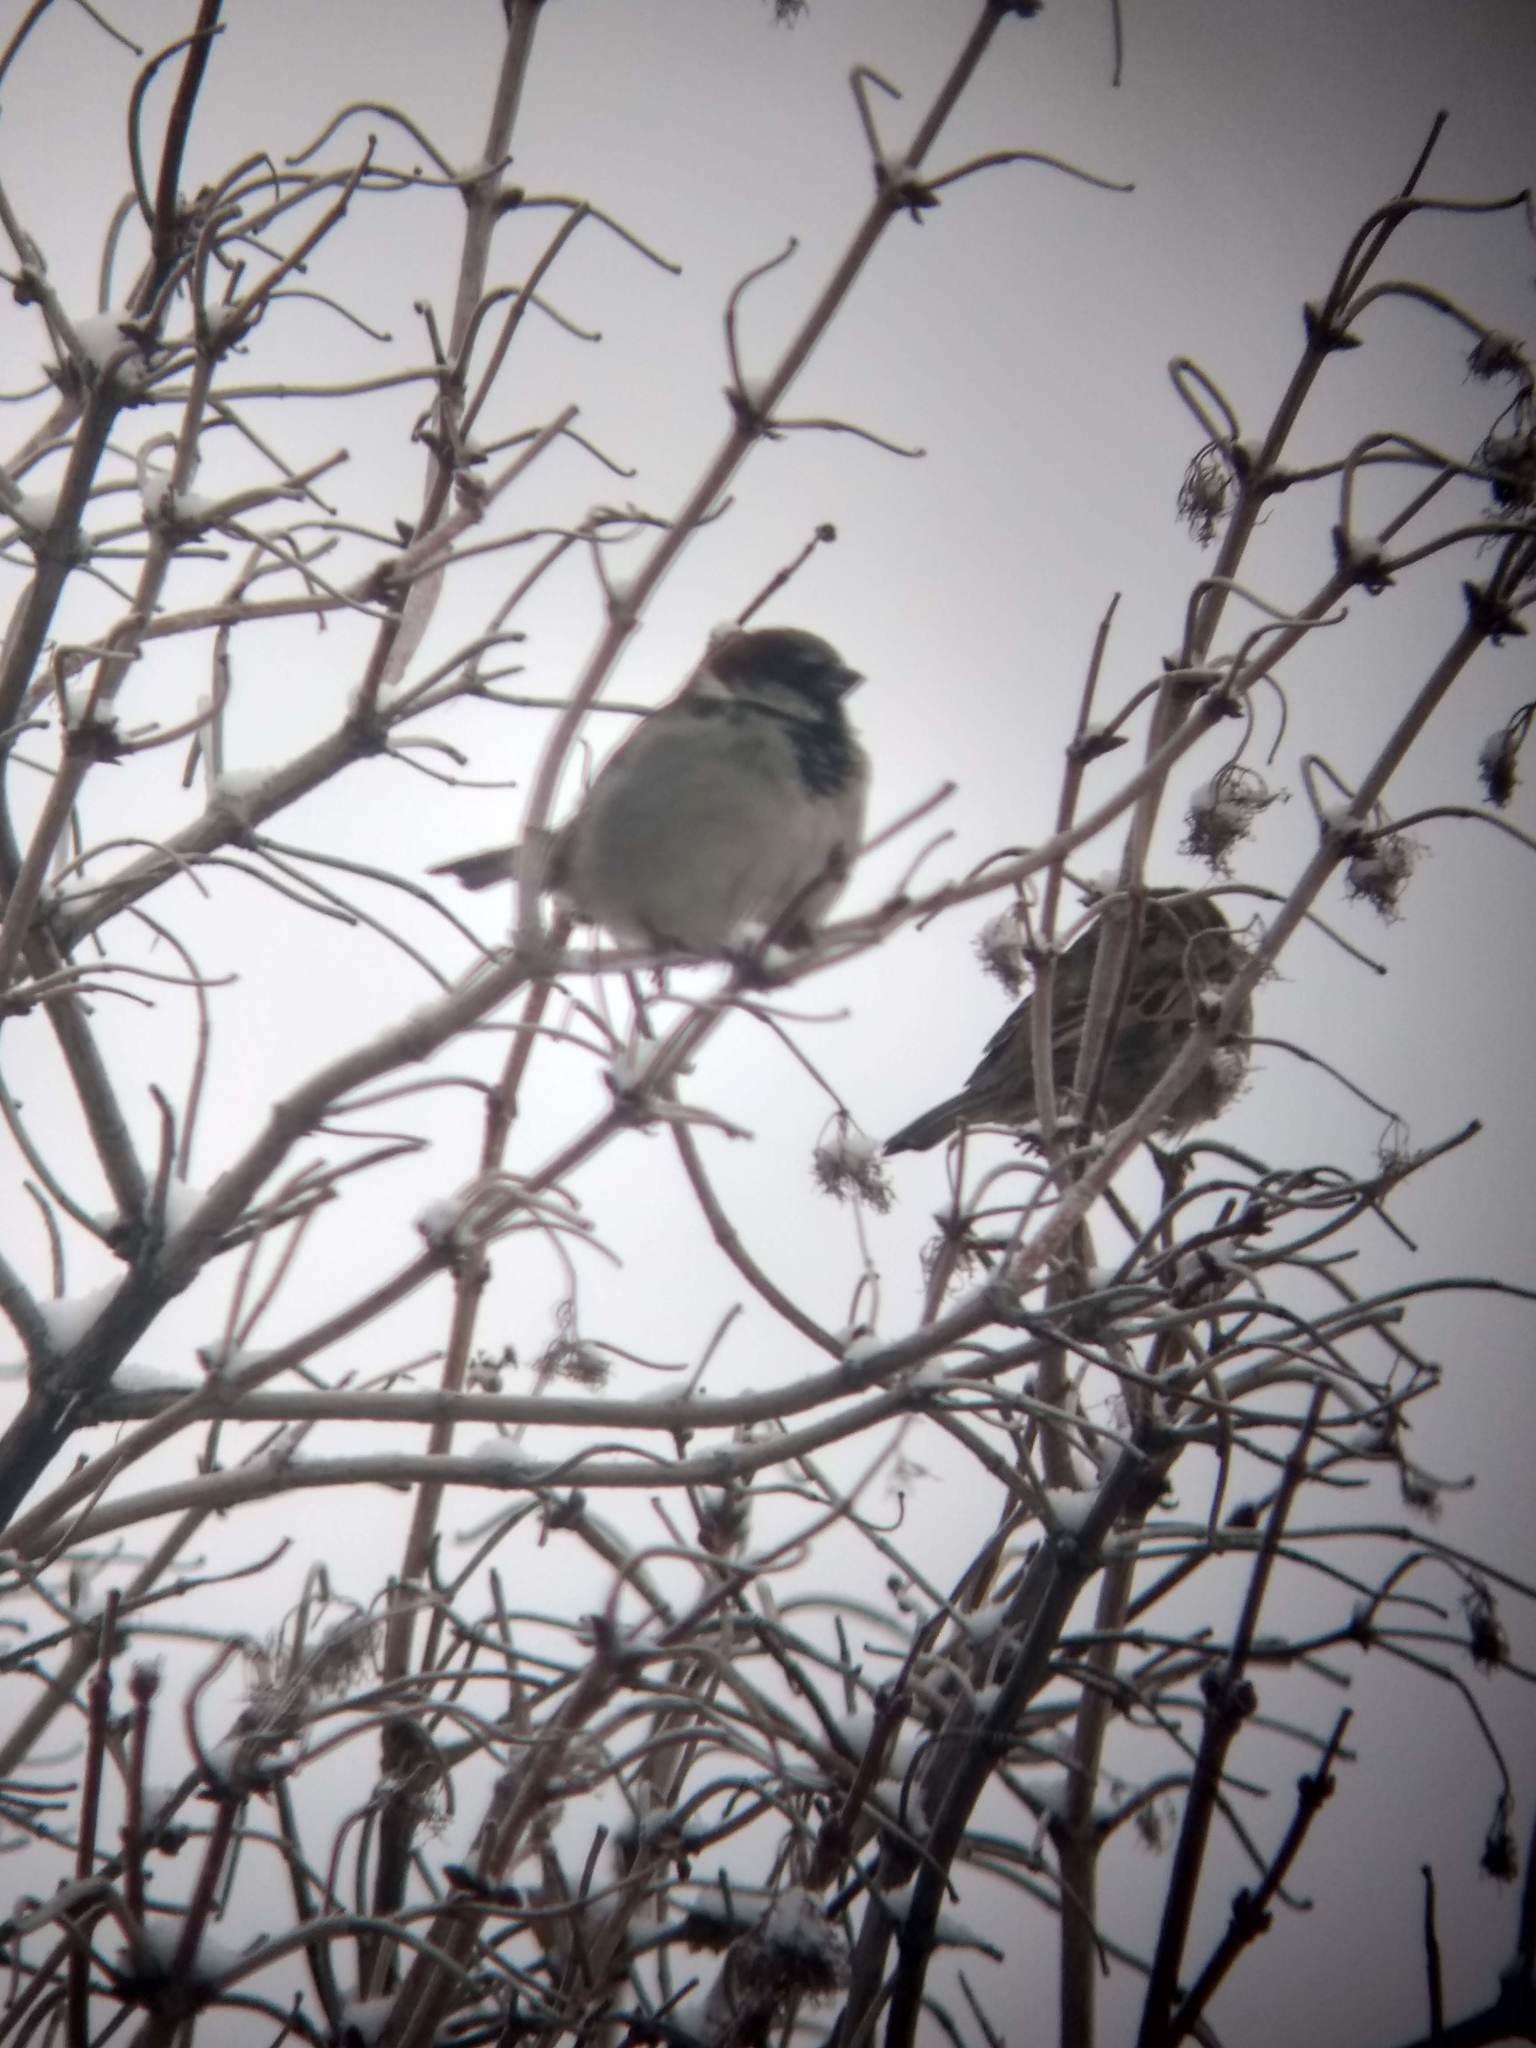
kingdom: Animalia
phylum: Chordata
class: Aves
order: Passeriformes
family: Passeridae
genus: Passer
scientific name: Passer domesticus
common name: House sparrow
